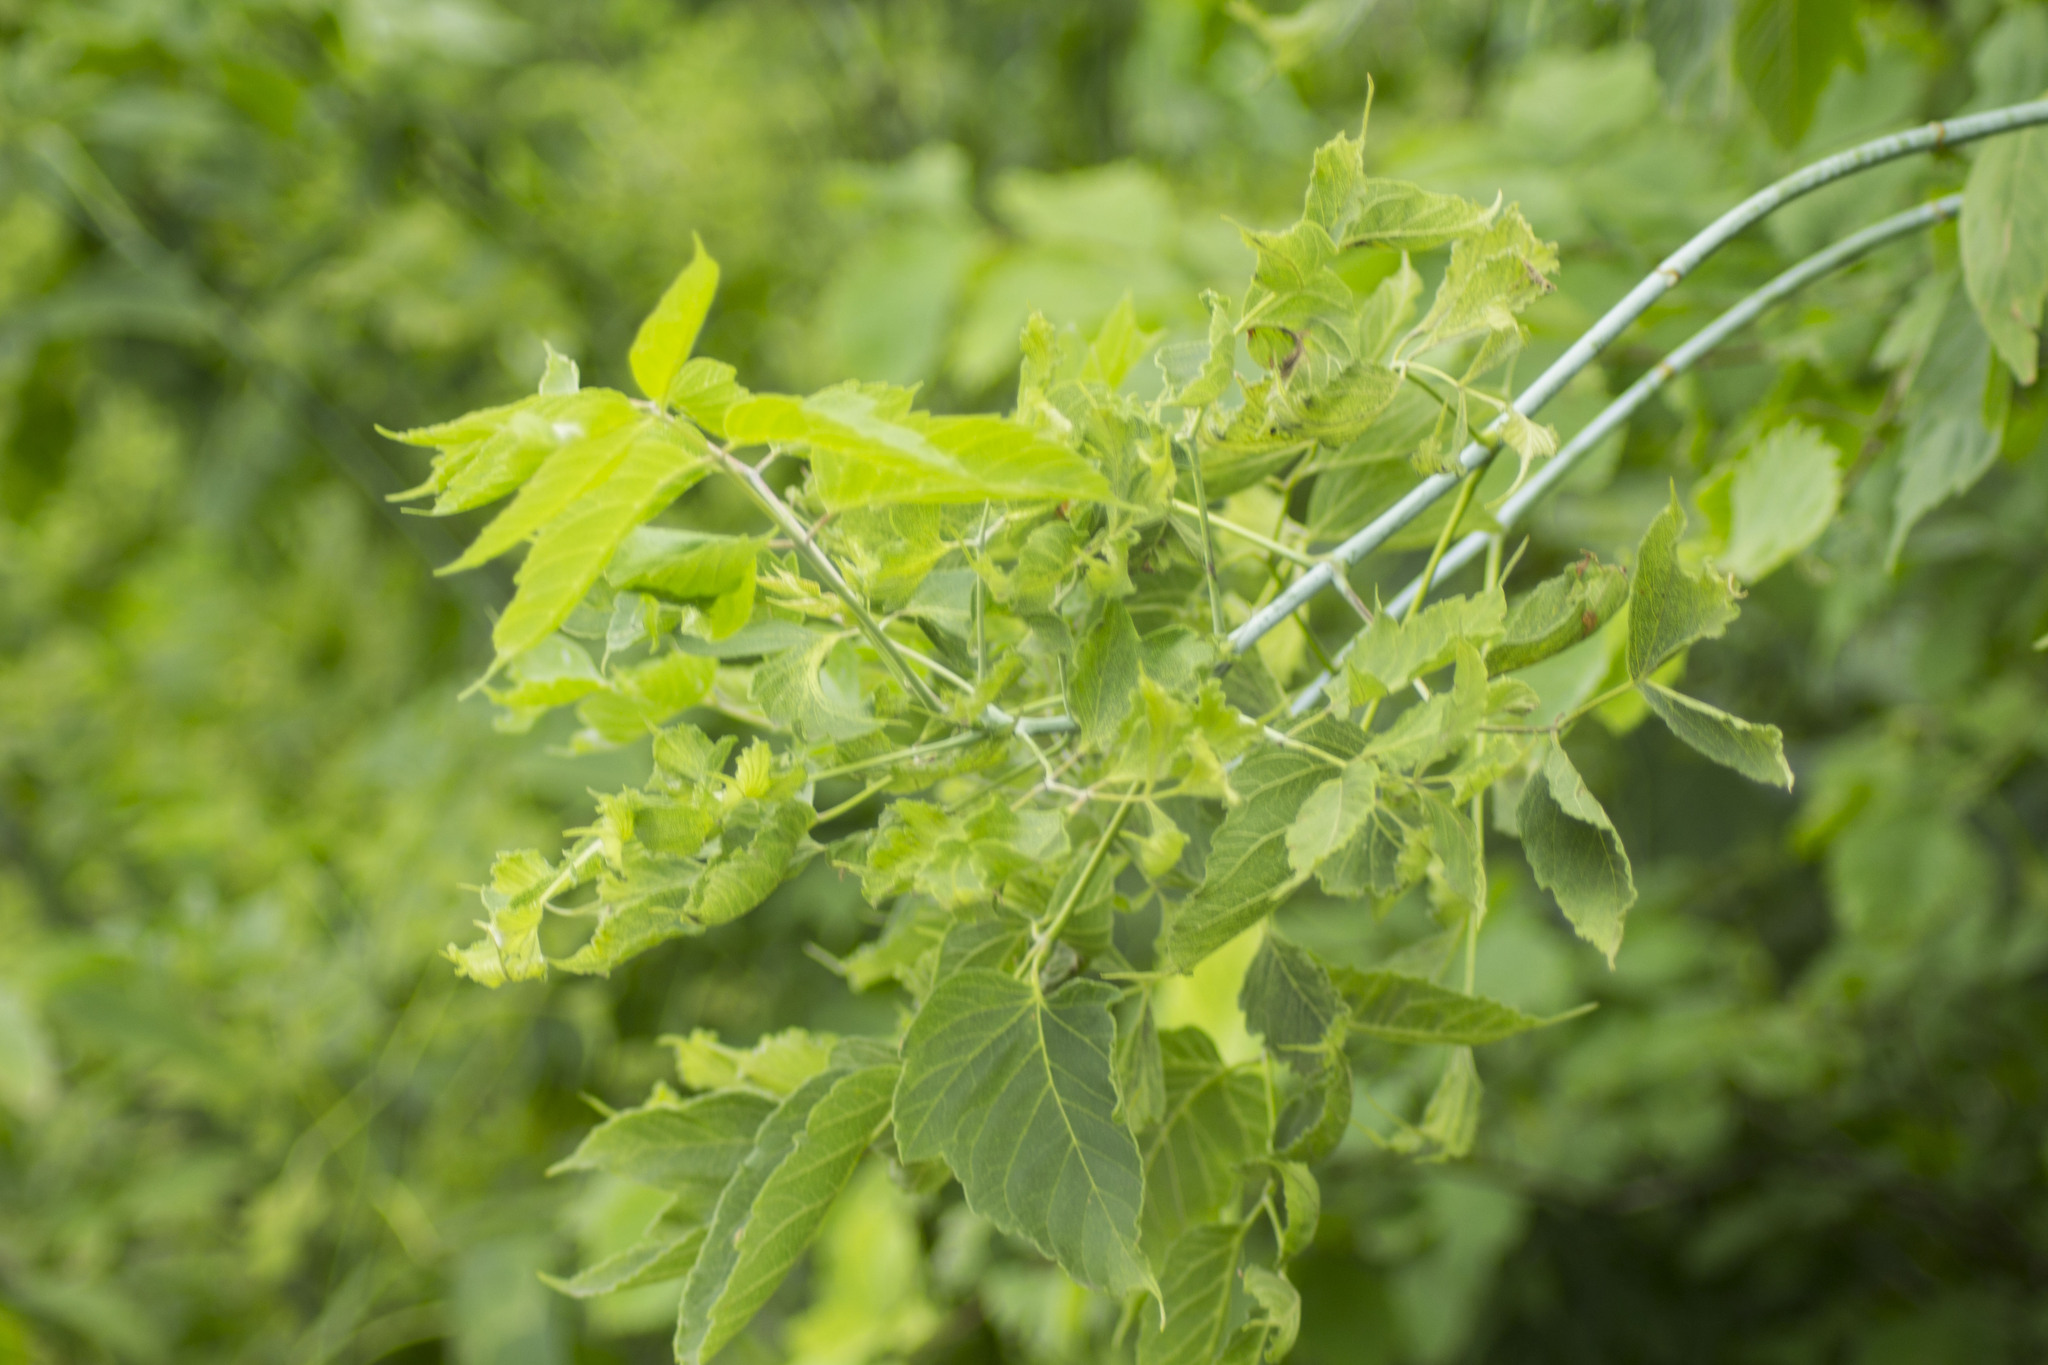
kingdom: Plantae
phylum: Tracheophyta
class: Magnoliopsida
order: Sapindales
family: Sapindaceae
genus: Acer
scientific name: Acer negundo
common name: Ashleaf maple
